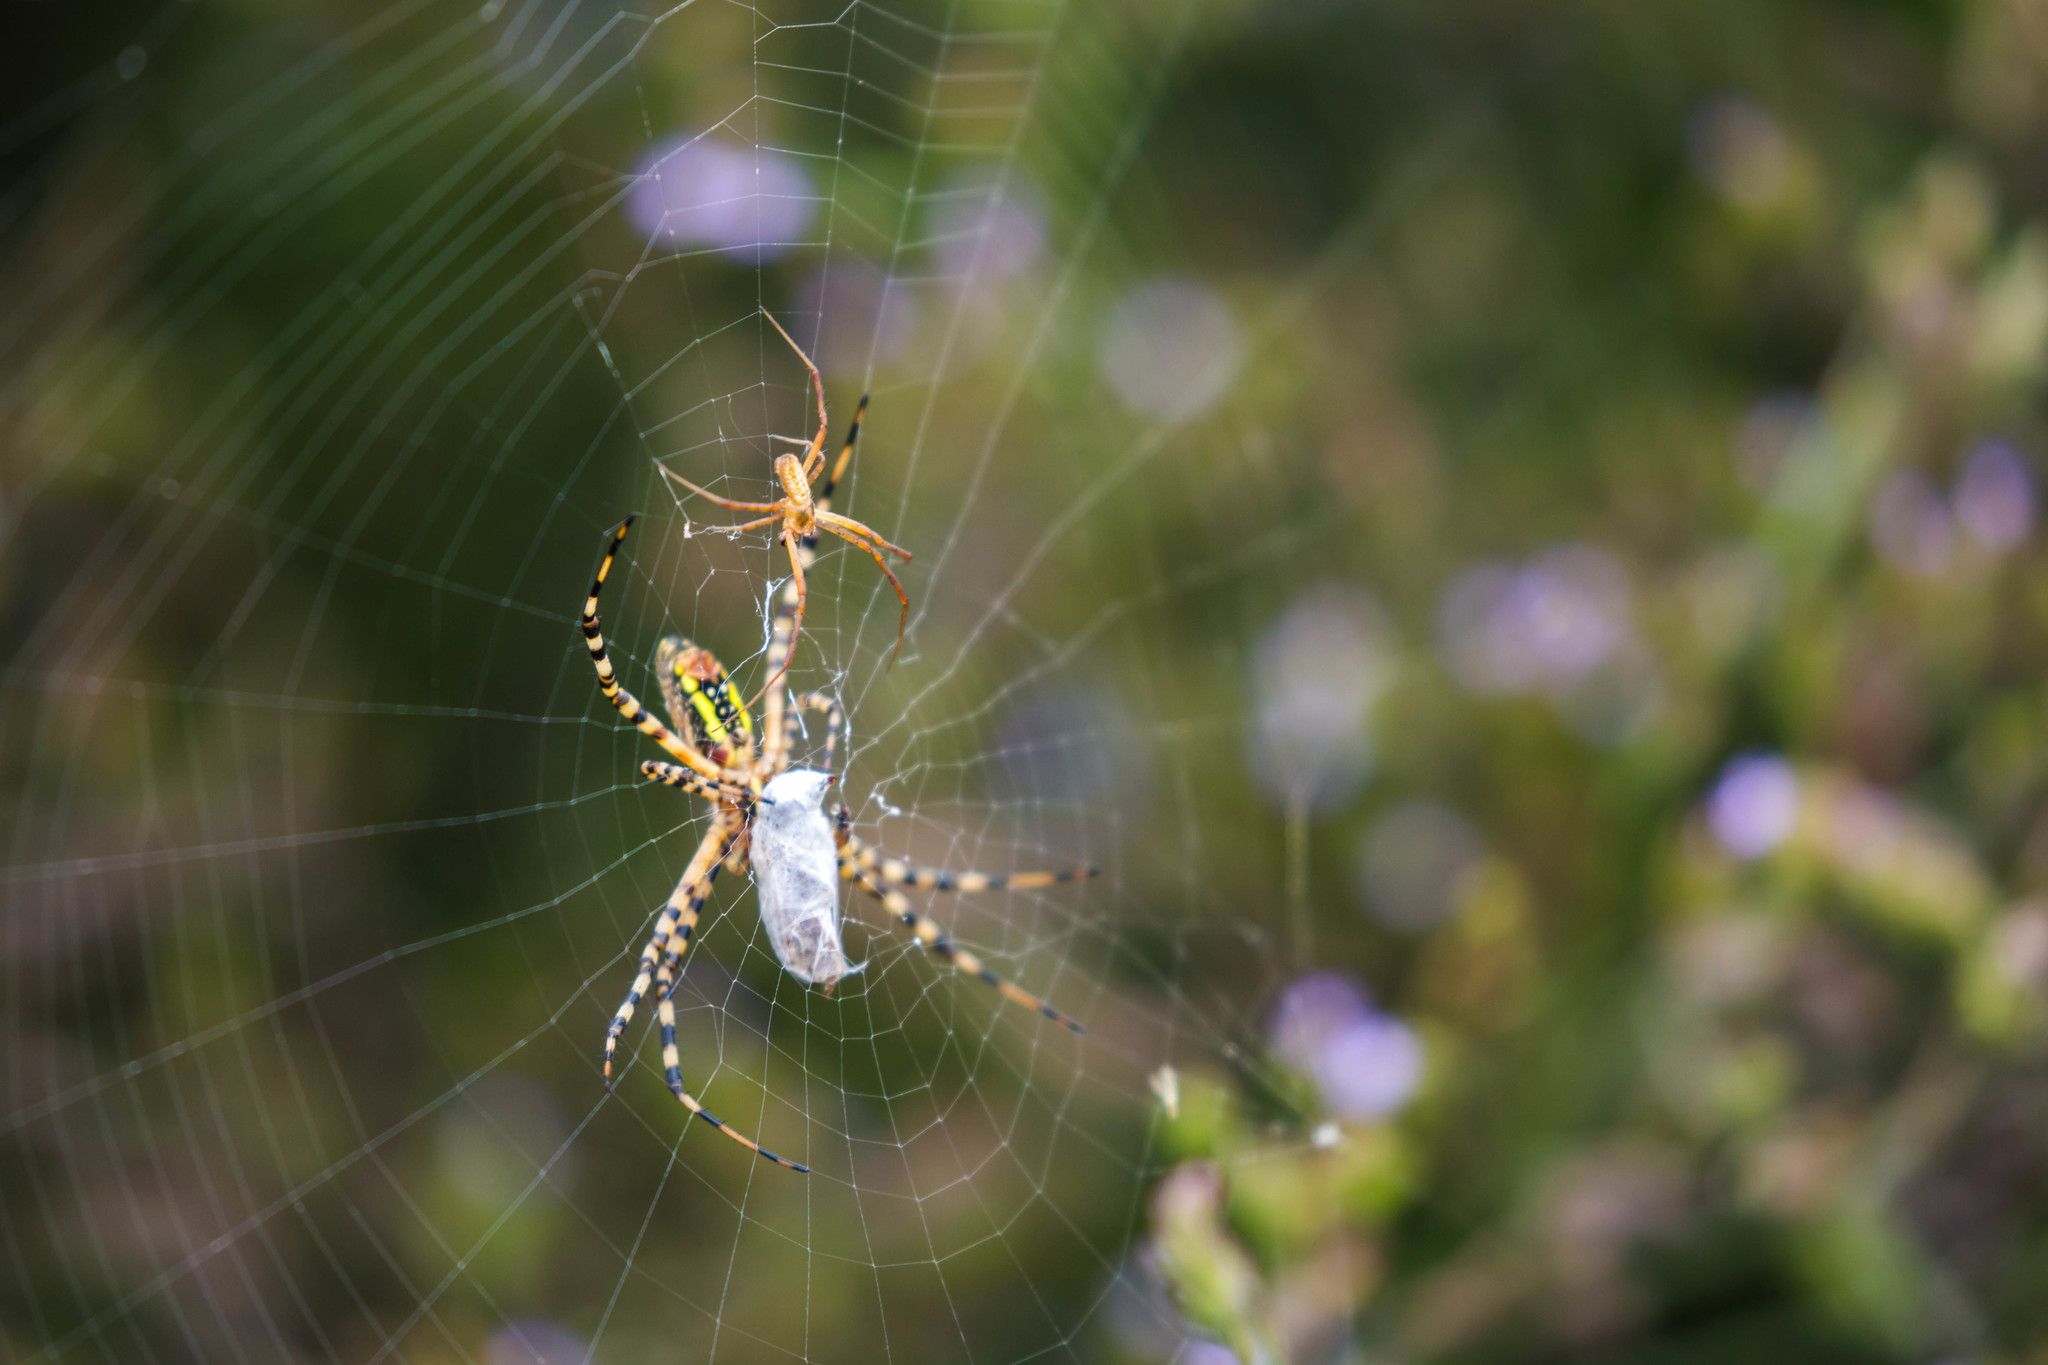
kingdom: Animalia
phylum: Arthropoda
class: Arachnida
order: Araneae
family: Araneidae
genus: Argiope
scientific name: Argiope trifasciata
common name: Banded garden spider
